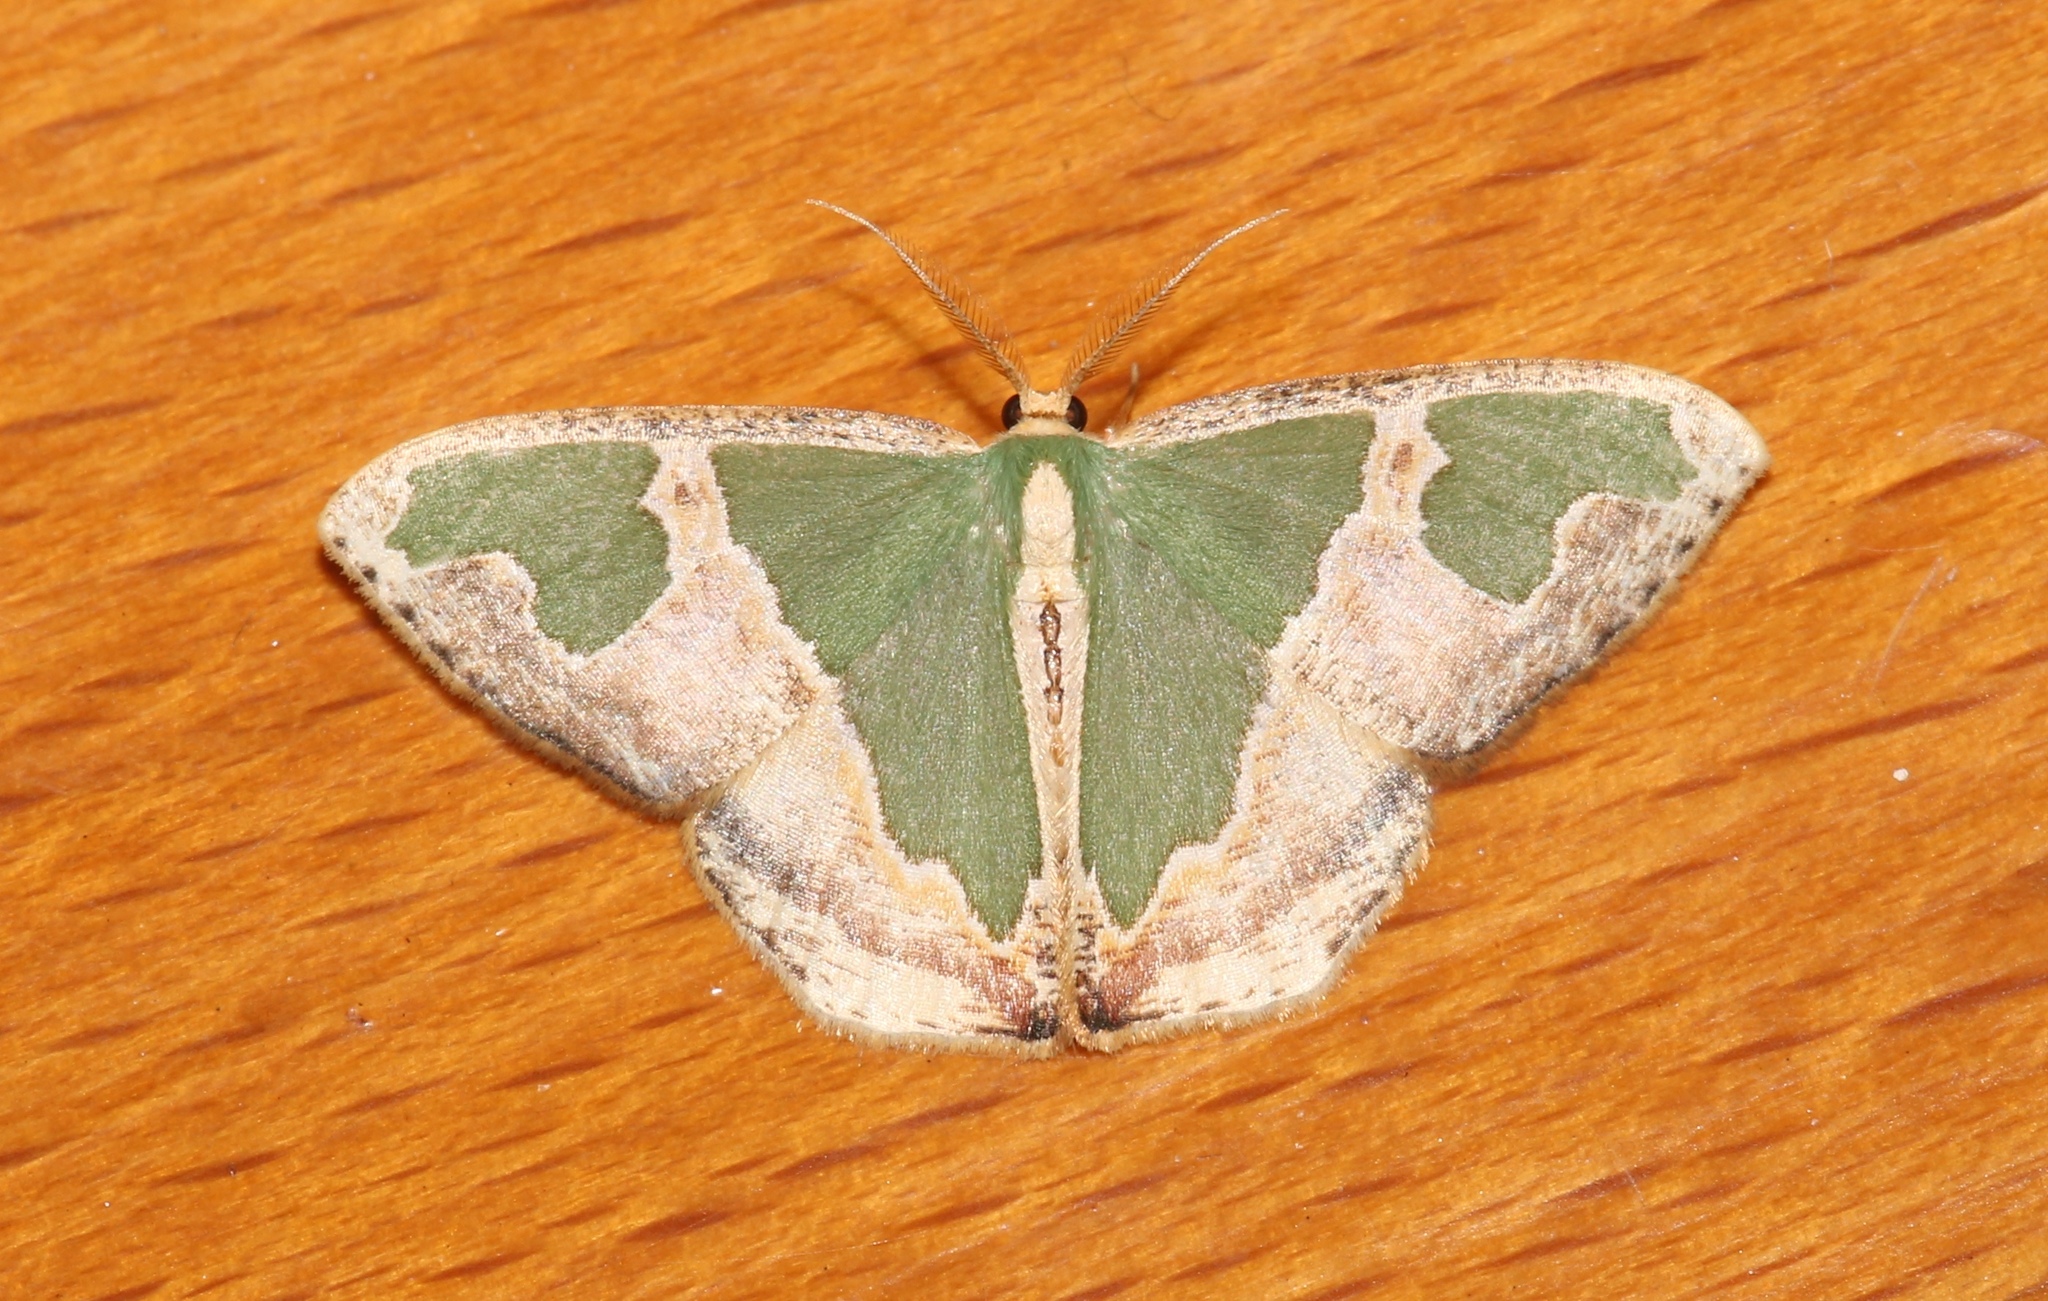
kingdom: Animalia
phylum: Arthropoda
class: Insecta
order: Lepidoptera
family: Geometridae
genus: Oospila
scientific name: Oospila venezuelata
